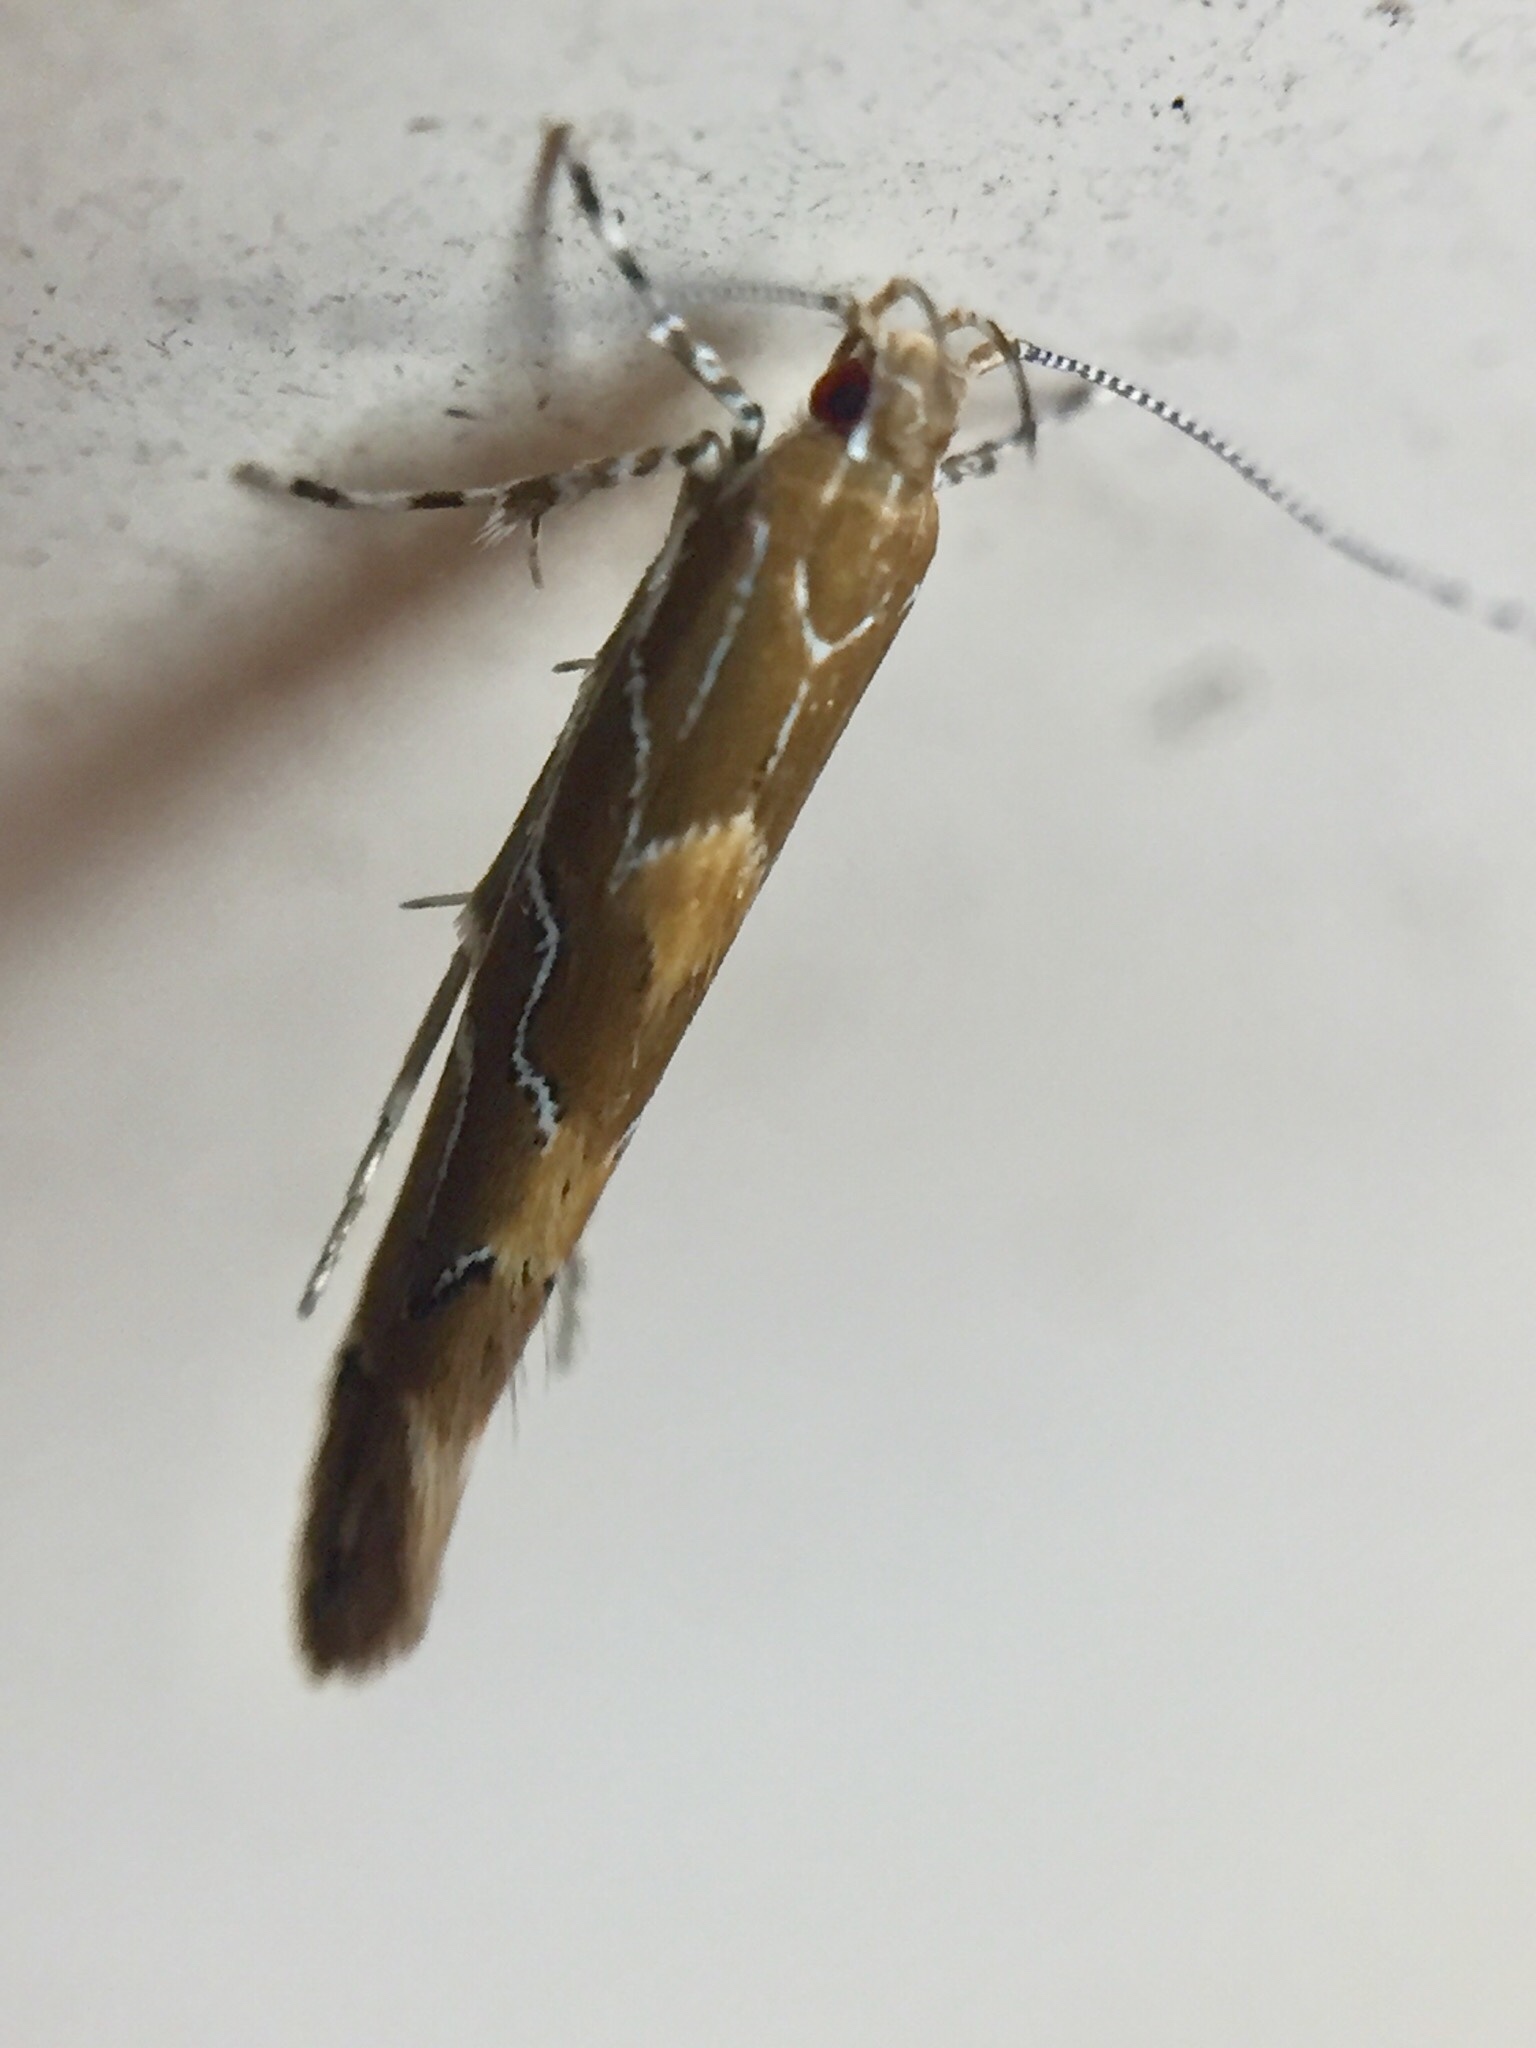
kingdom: Animalia
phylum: Arthropoda
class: Insecta
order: Lepidoptera
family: Cosmopterigidae
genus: Pyroderces
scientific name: Pyroderces apparitella
